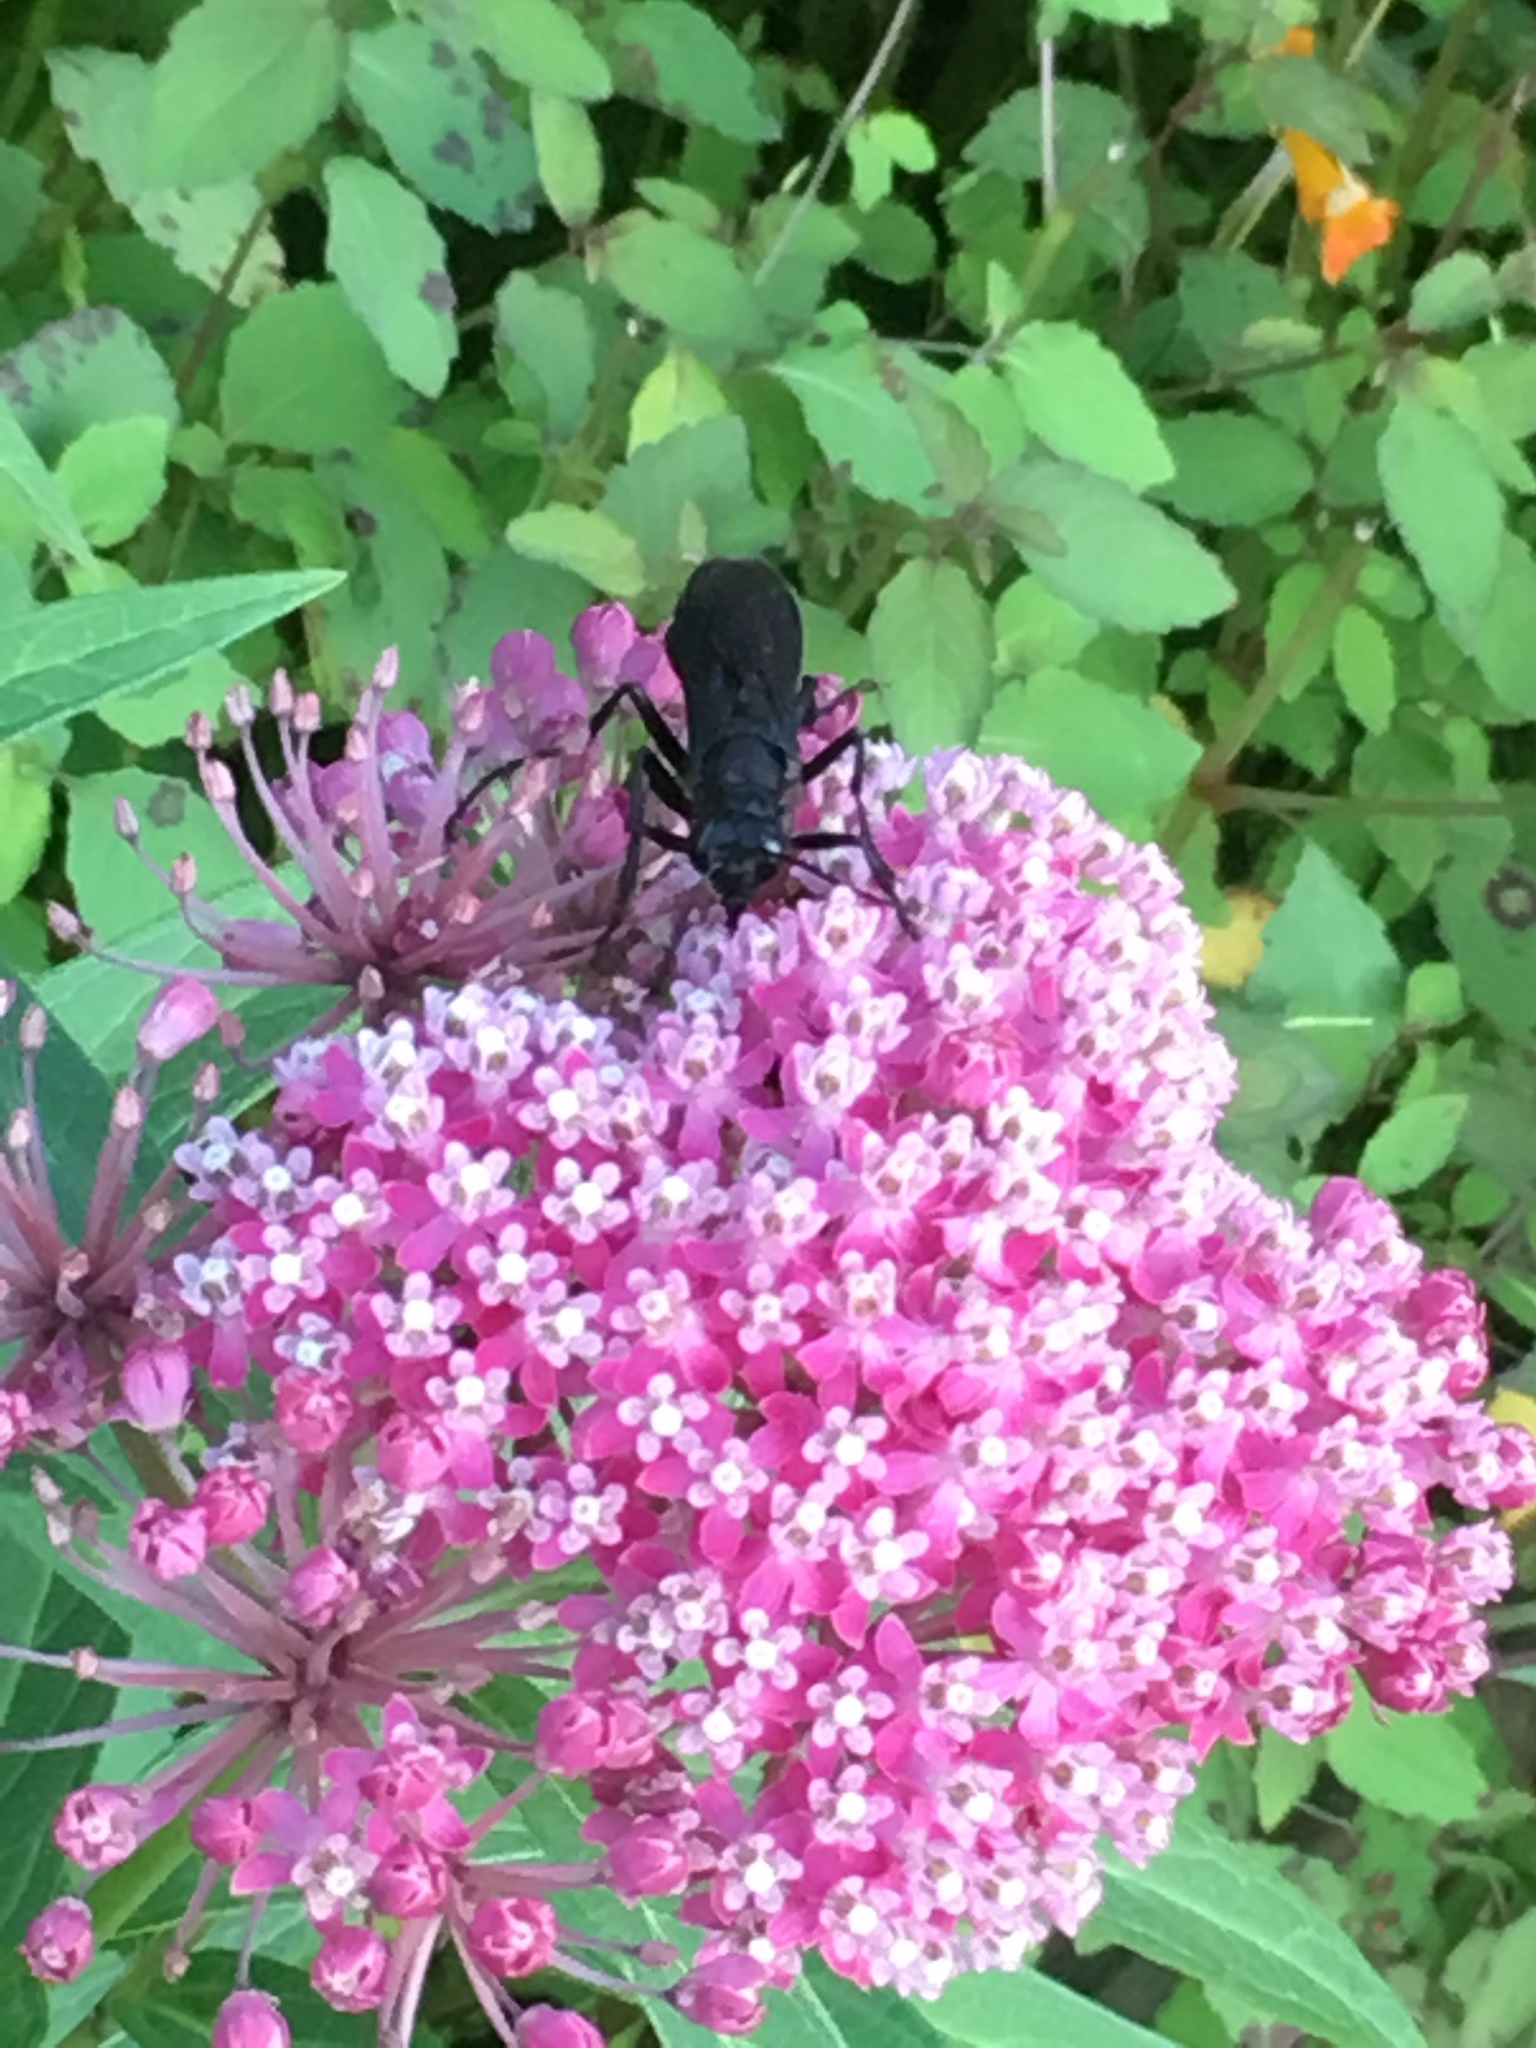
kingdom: Animalia
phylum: Arthropoda
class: Insecta
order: Hymenoptera
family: Sphecidae
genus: Sphex
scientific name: Sphex pensylvanicus
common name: Great black digger wasp
